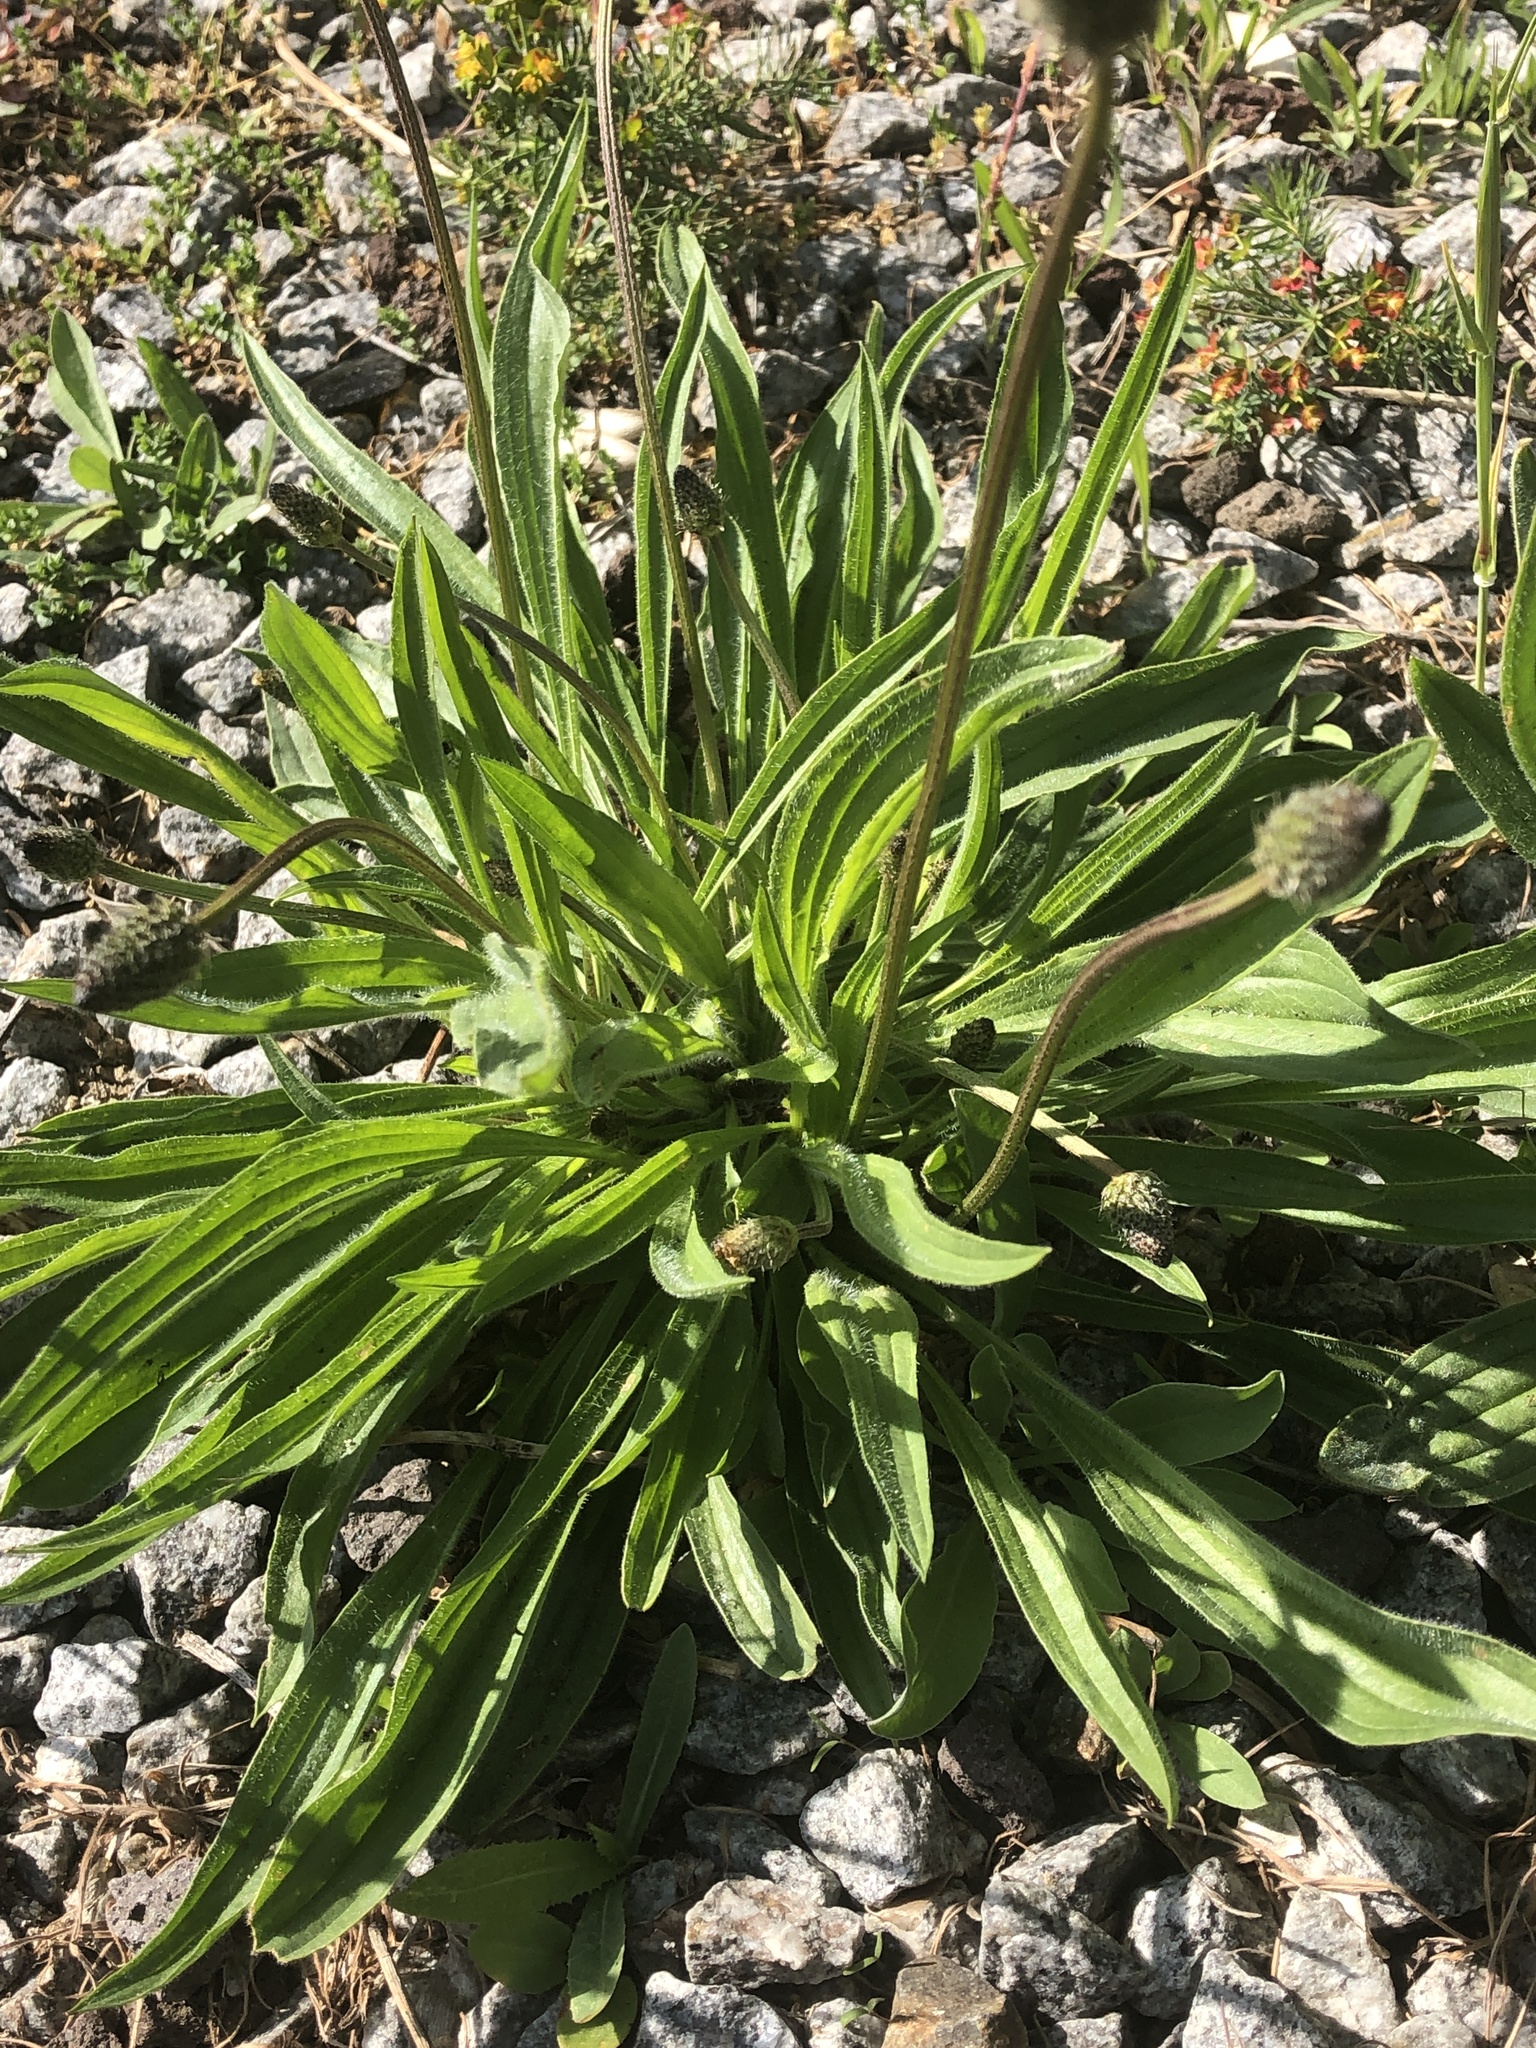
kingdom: Plantae
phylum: Tracheophyta
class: Magnoliopsida
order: Lamiales
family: Plantaginaceae
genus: Plantago
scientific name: Plantago lanceolata
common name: Ribwort plantain
